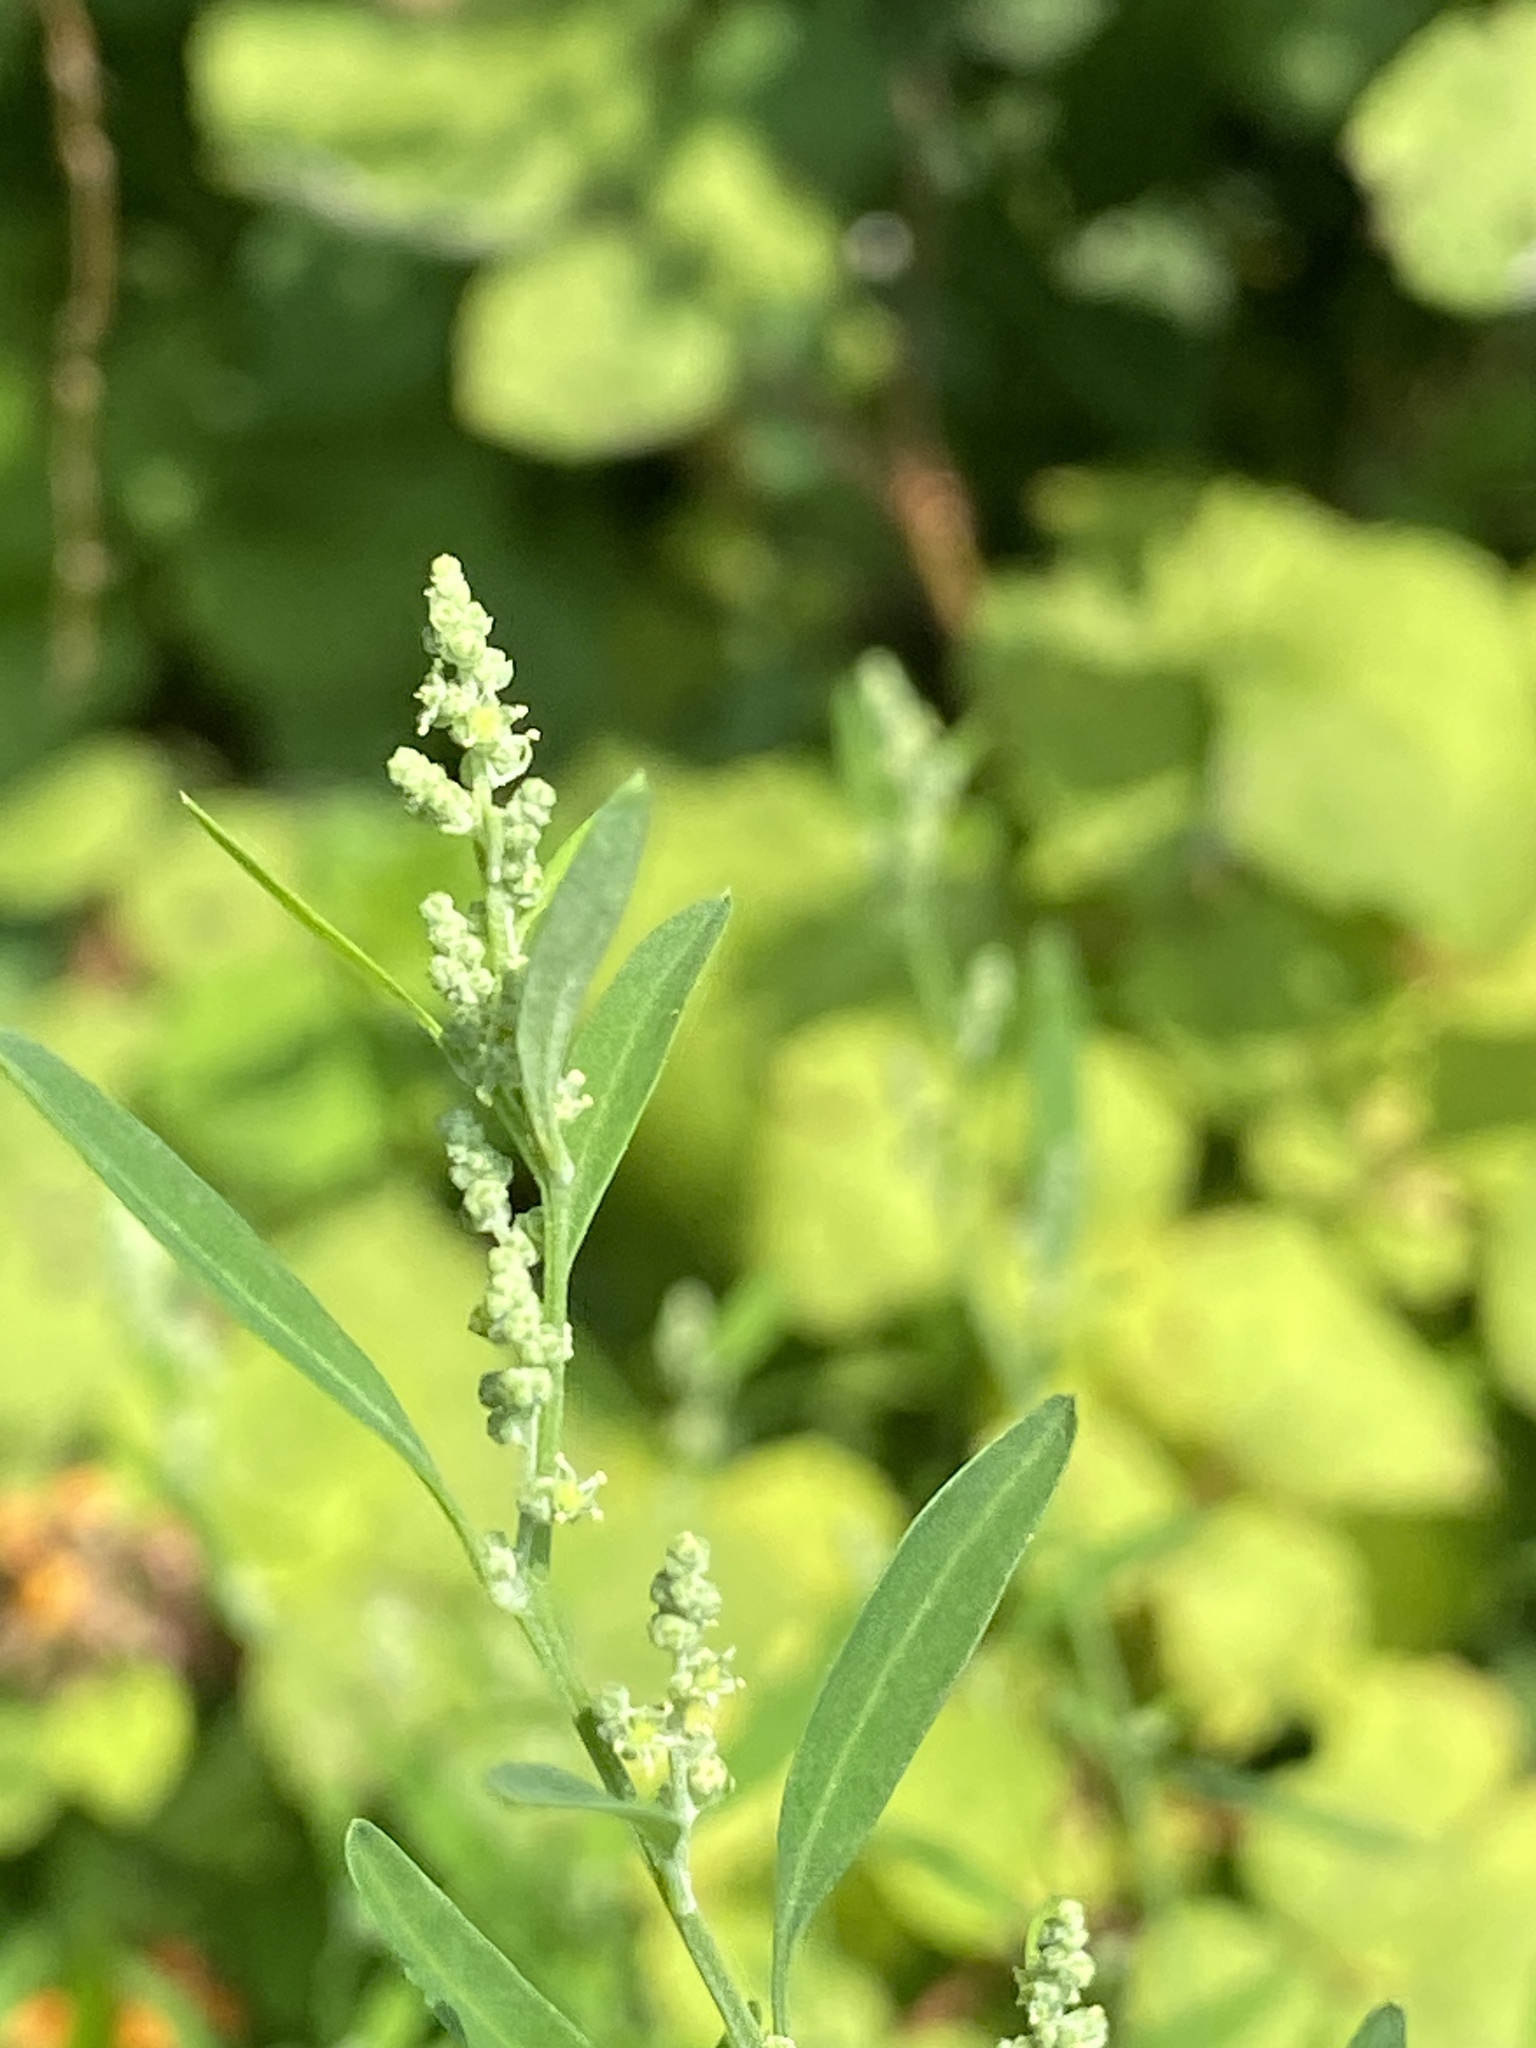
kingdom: Plantae
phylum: Tracheophyta
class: Magnoliopsida
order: Caryophyllales
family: Amaranthaceae
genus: Chenopodium
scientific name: Chenopodium album
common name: Fat-hen
